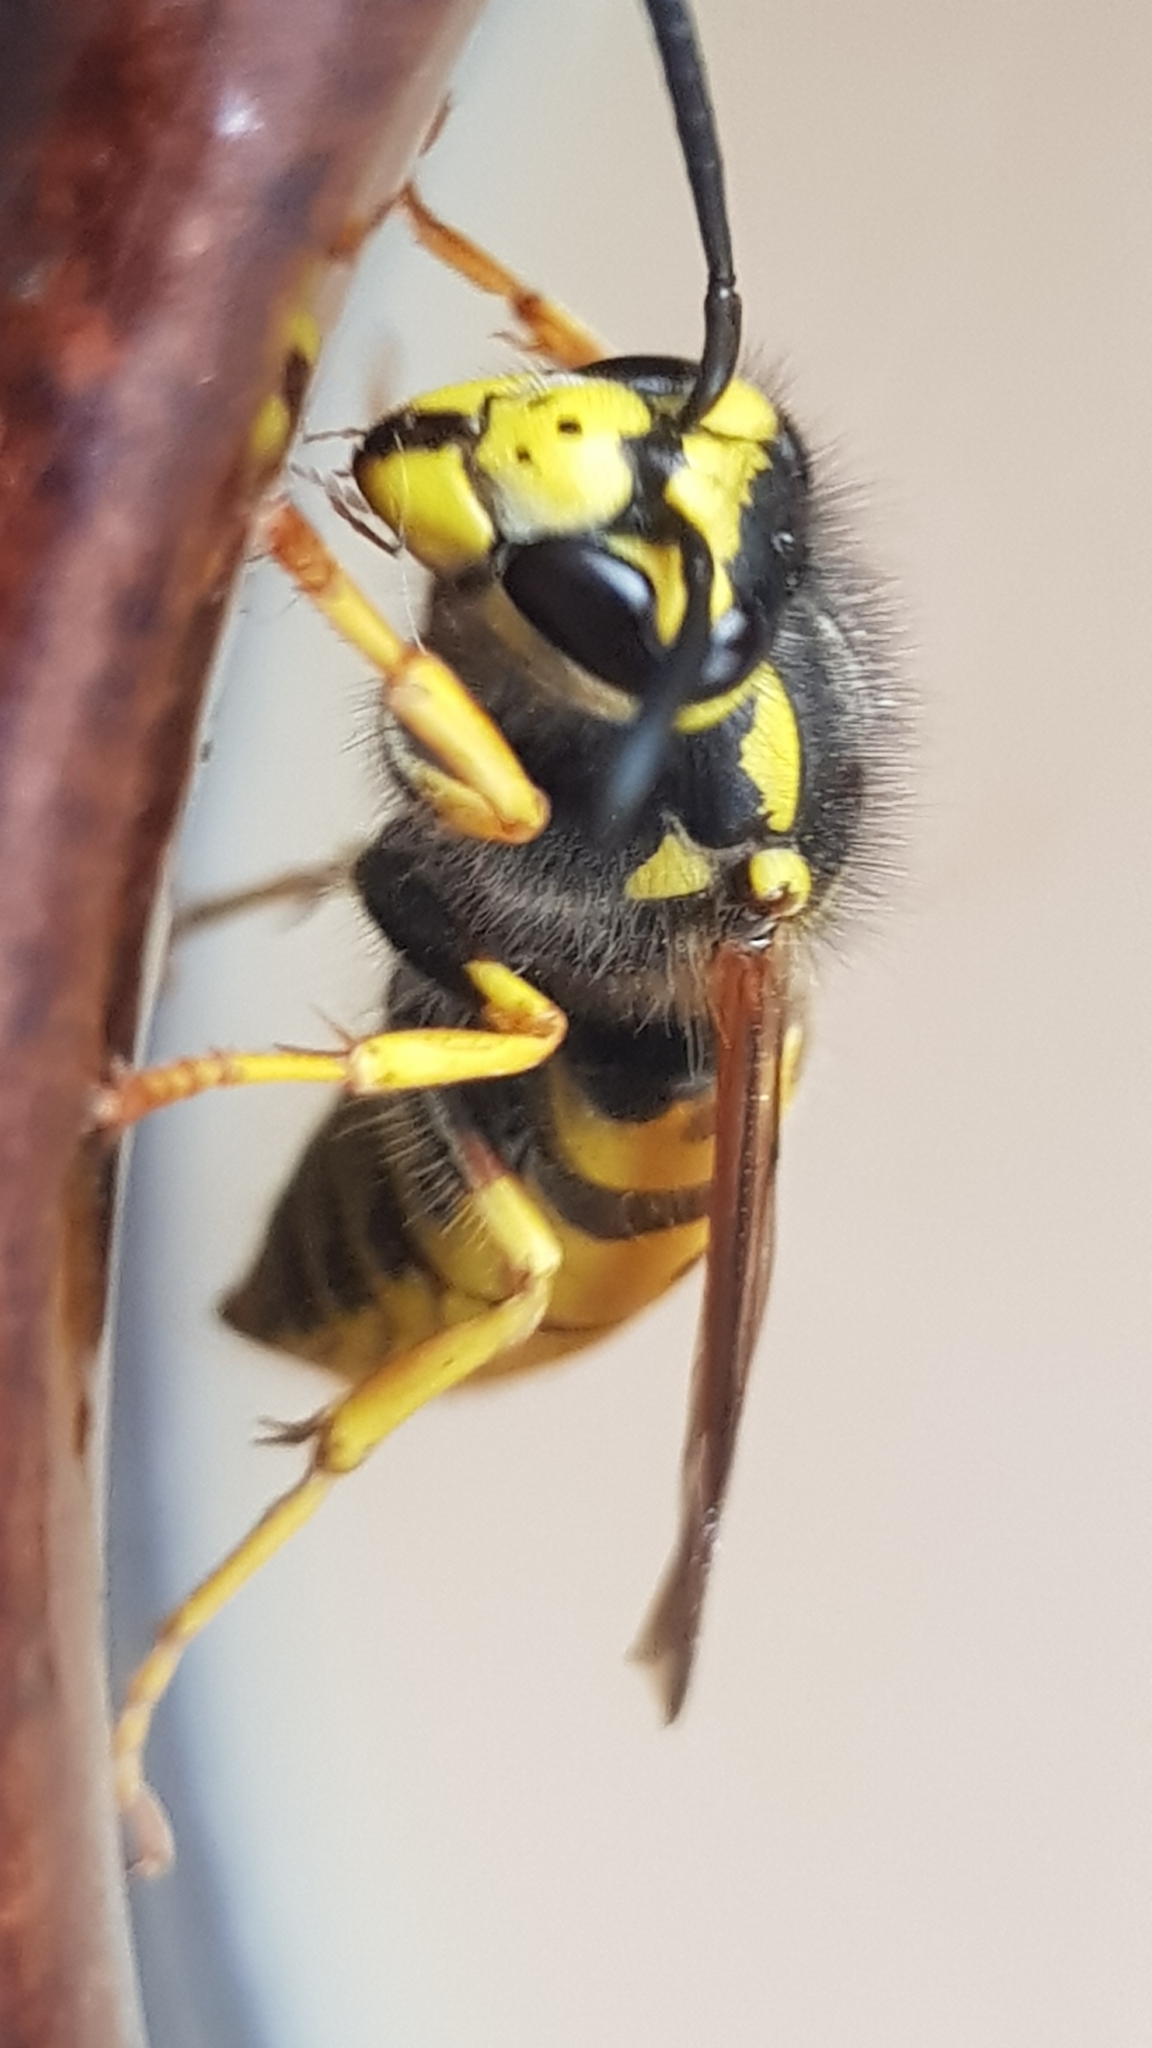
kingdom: Animalia
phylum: Arthropoda
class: Insecta
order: Hymenoptera
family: Vespidae
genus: Vespula
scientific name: Vespula germanica
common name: German wasp
